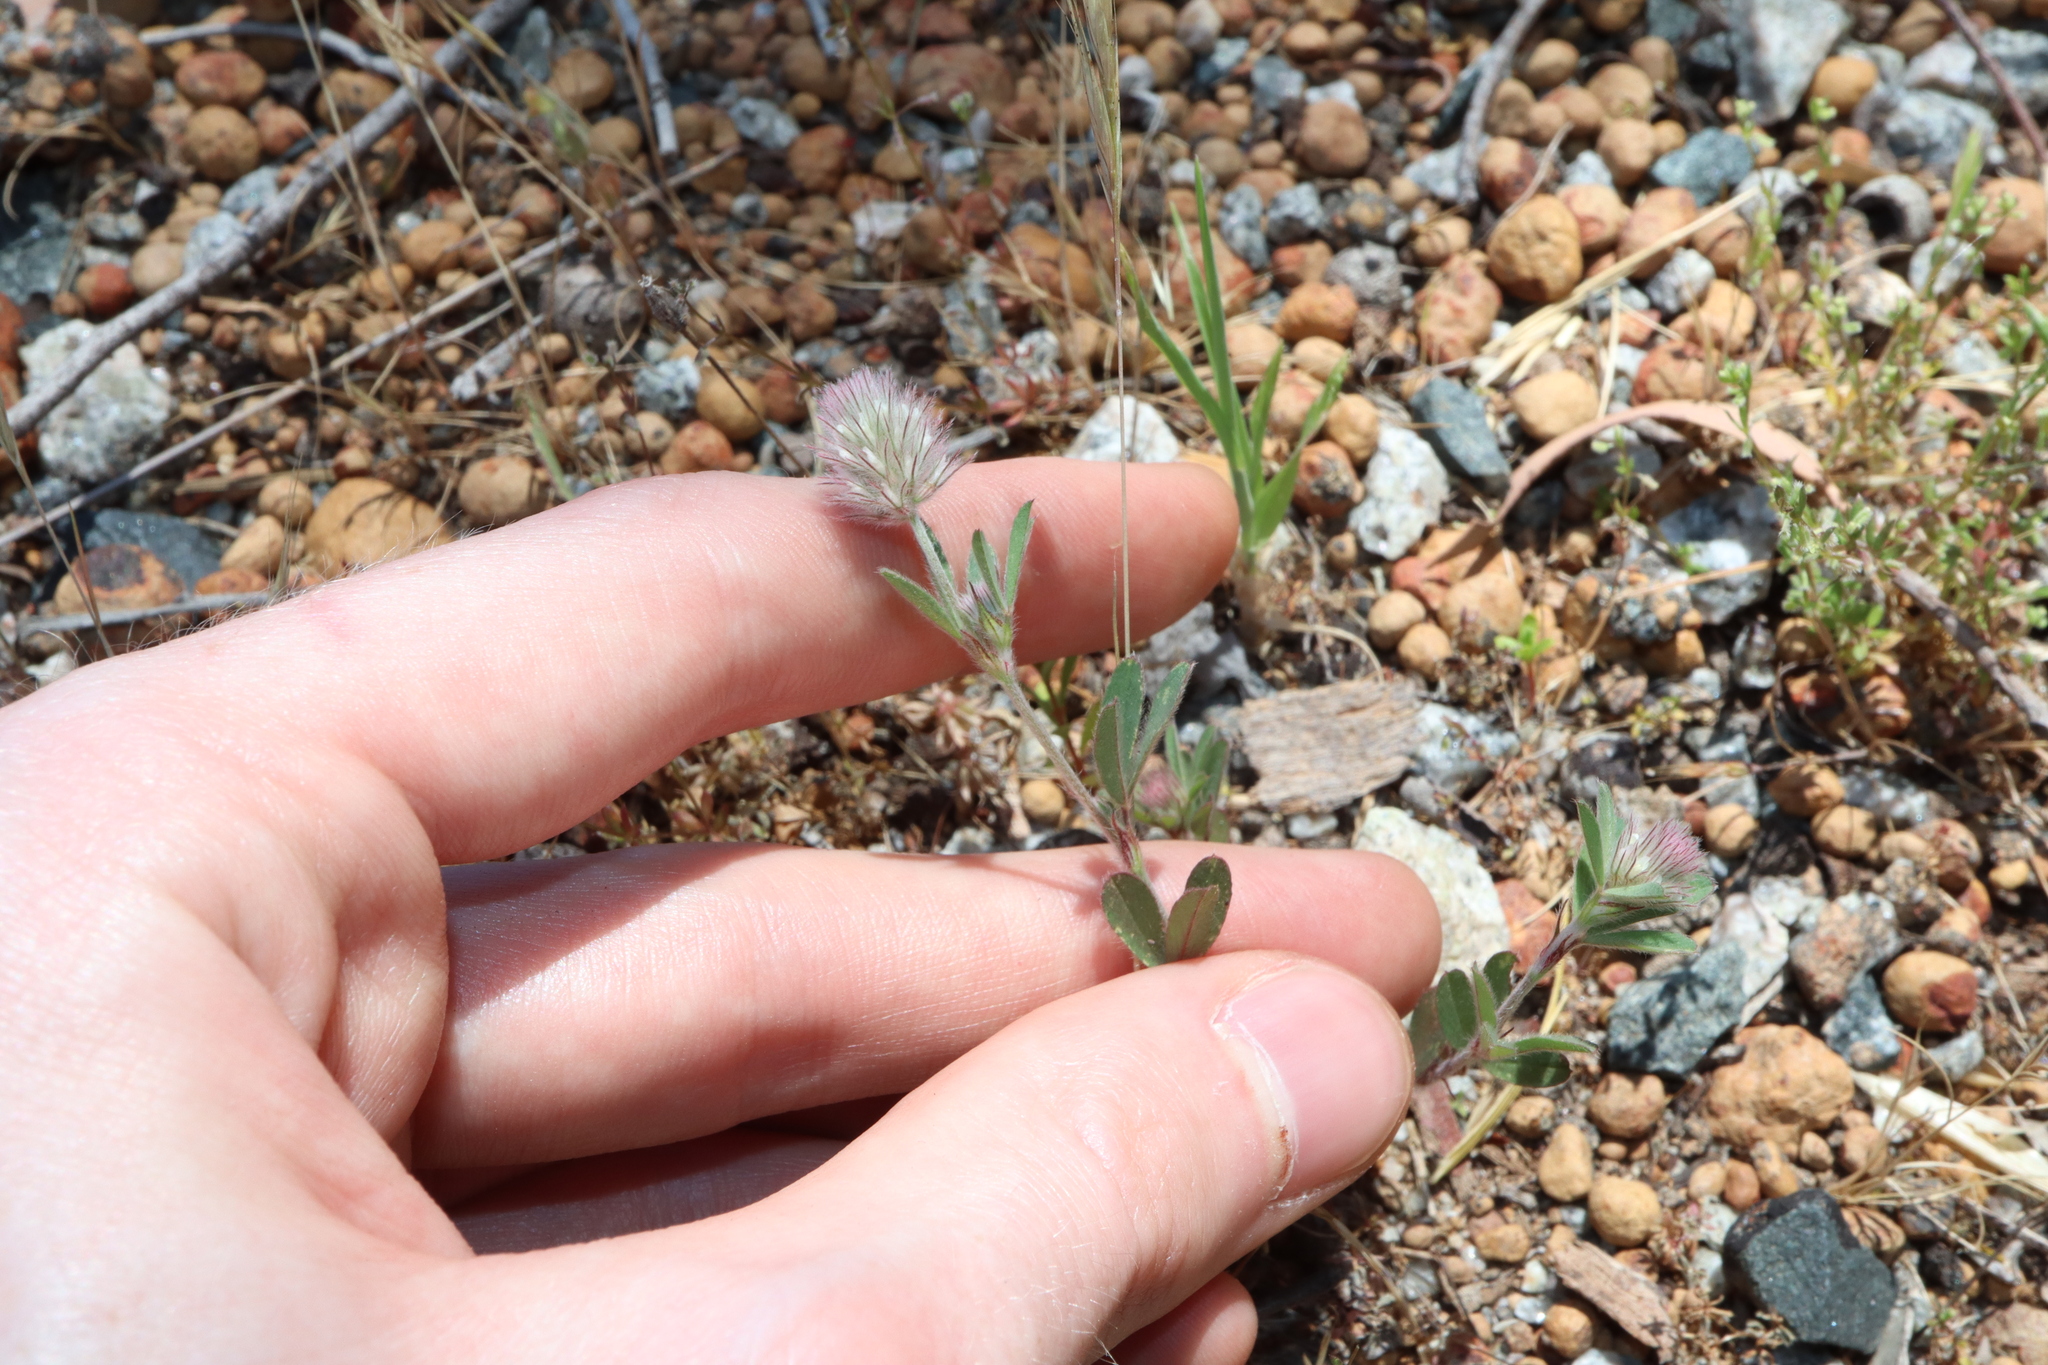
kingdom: Plantae
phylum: Tracheophyta
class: Magnoliopsida
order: Fabales
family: Fabaceae
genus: Trifolium
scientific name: Trifolium arvense
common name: Hare's-foot clover
